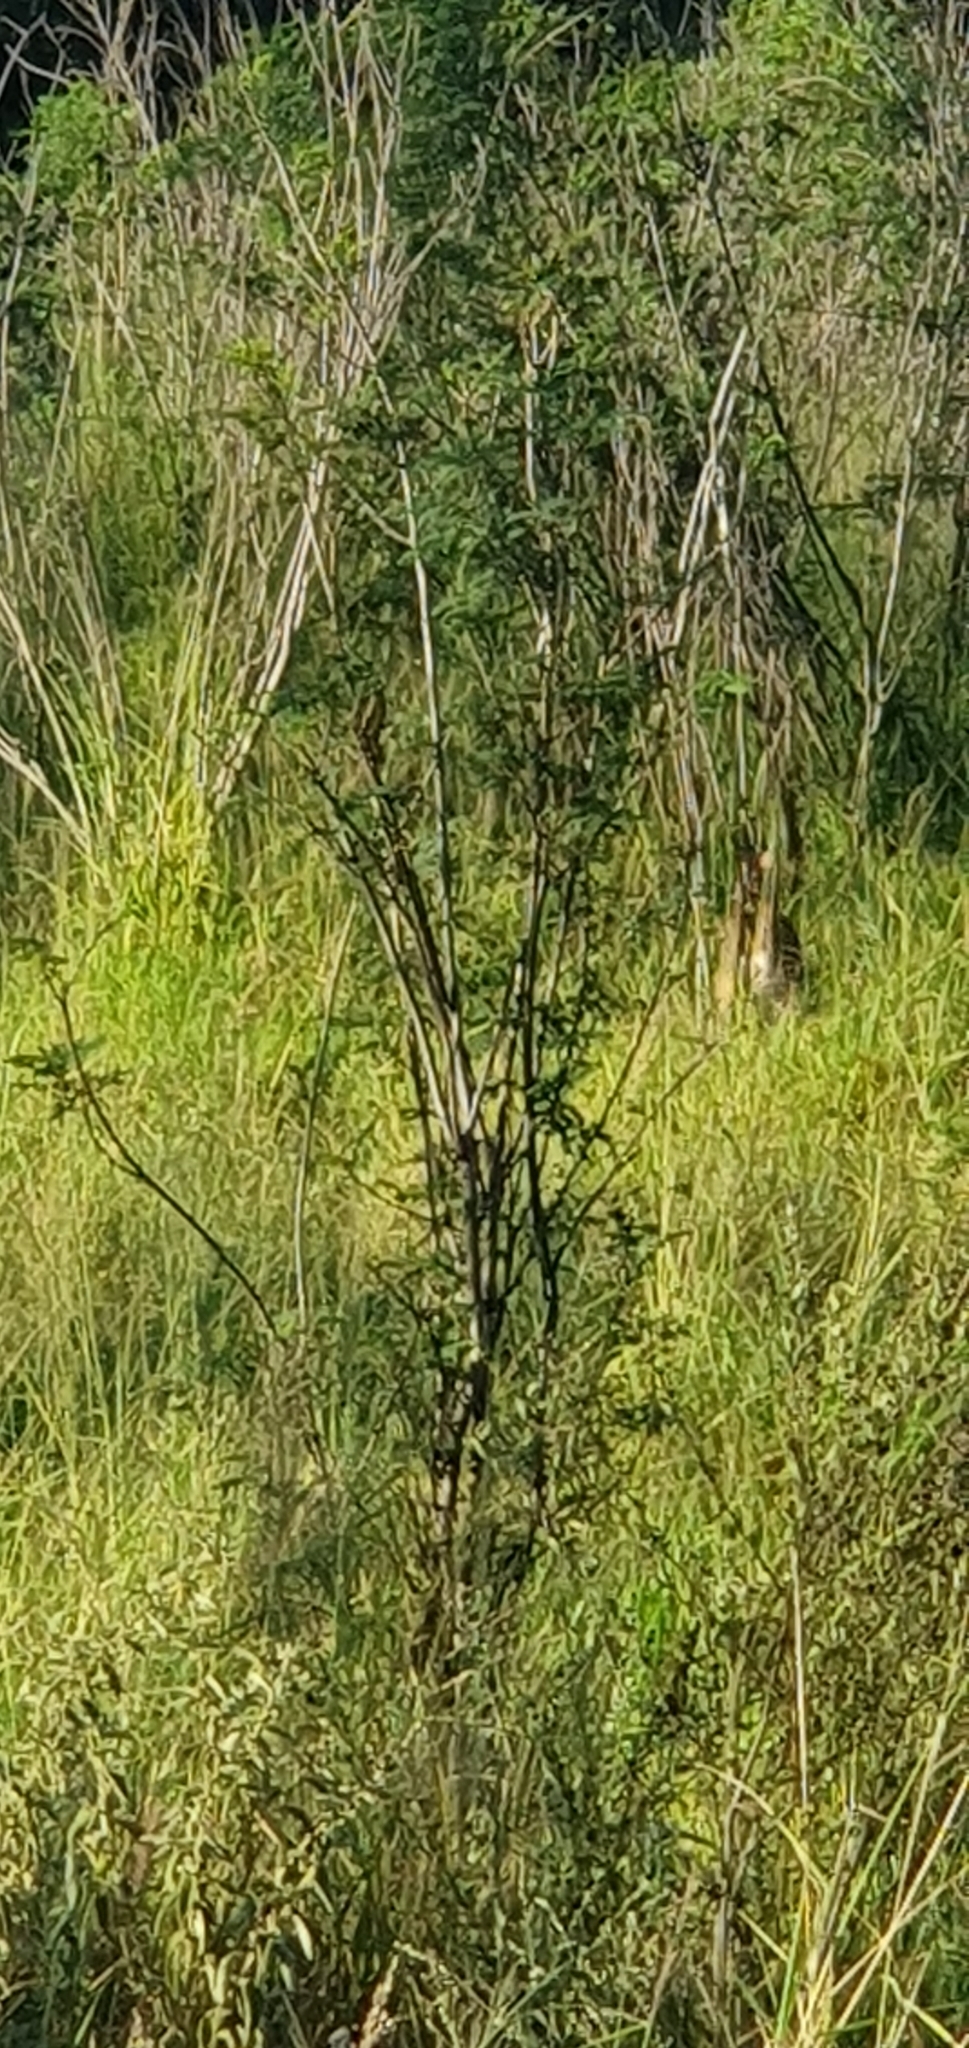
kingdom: Animalia
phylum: Chordata
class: Mammalia
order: Diprotodontia
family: Macropodidae
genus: Macropus
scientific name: Macropus agilis
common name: Agile wallaby
